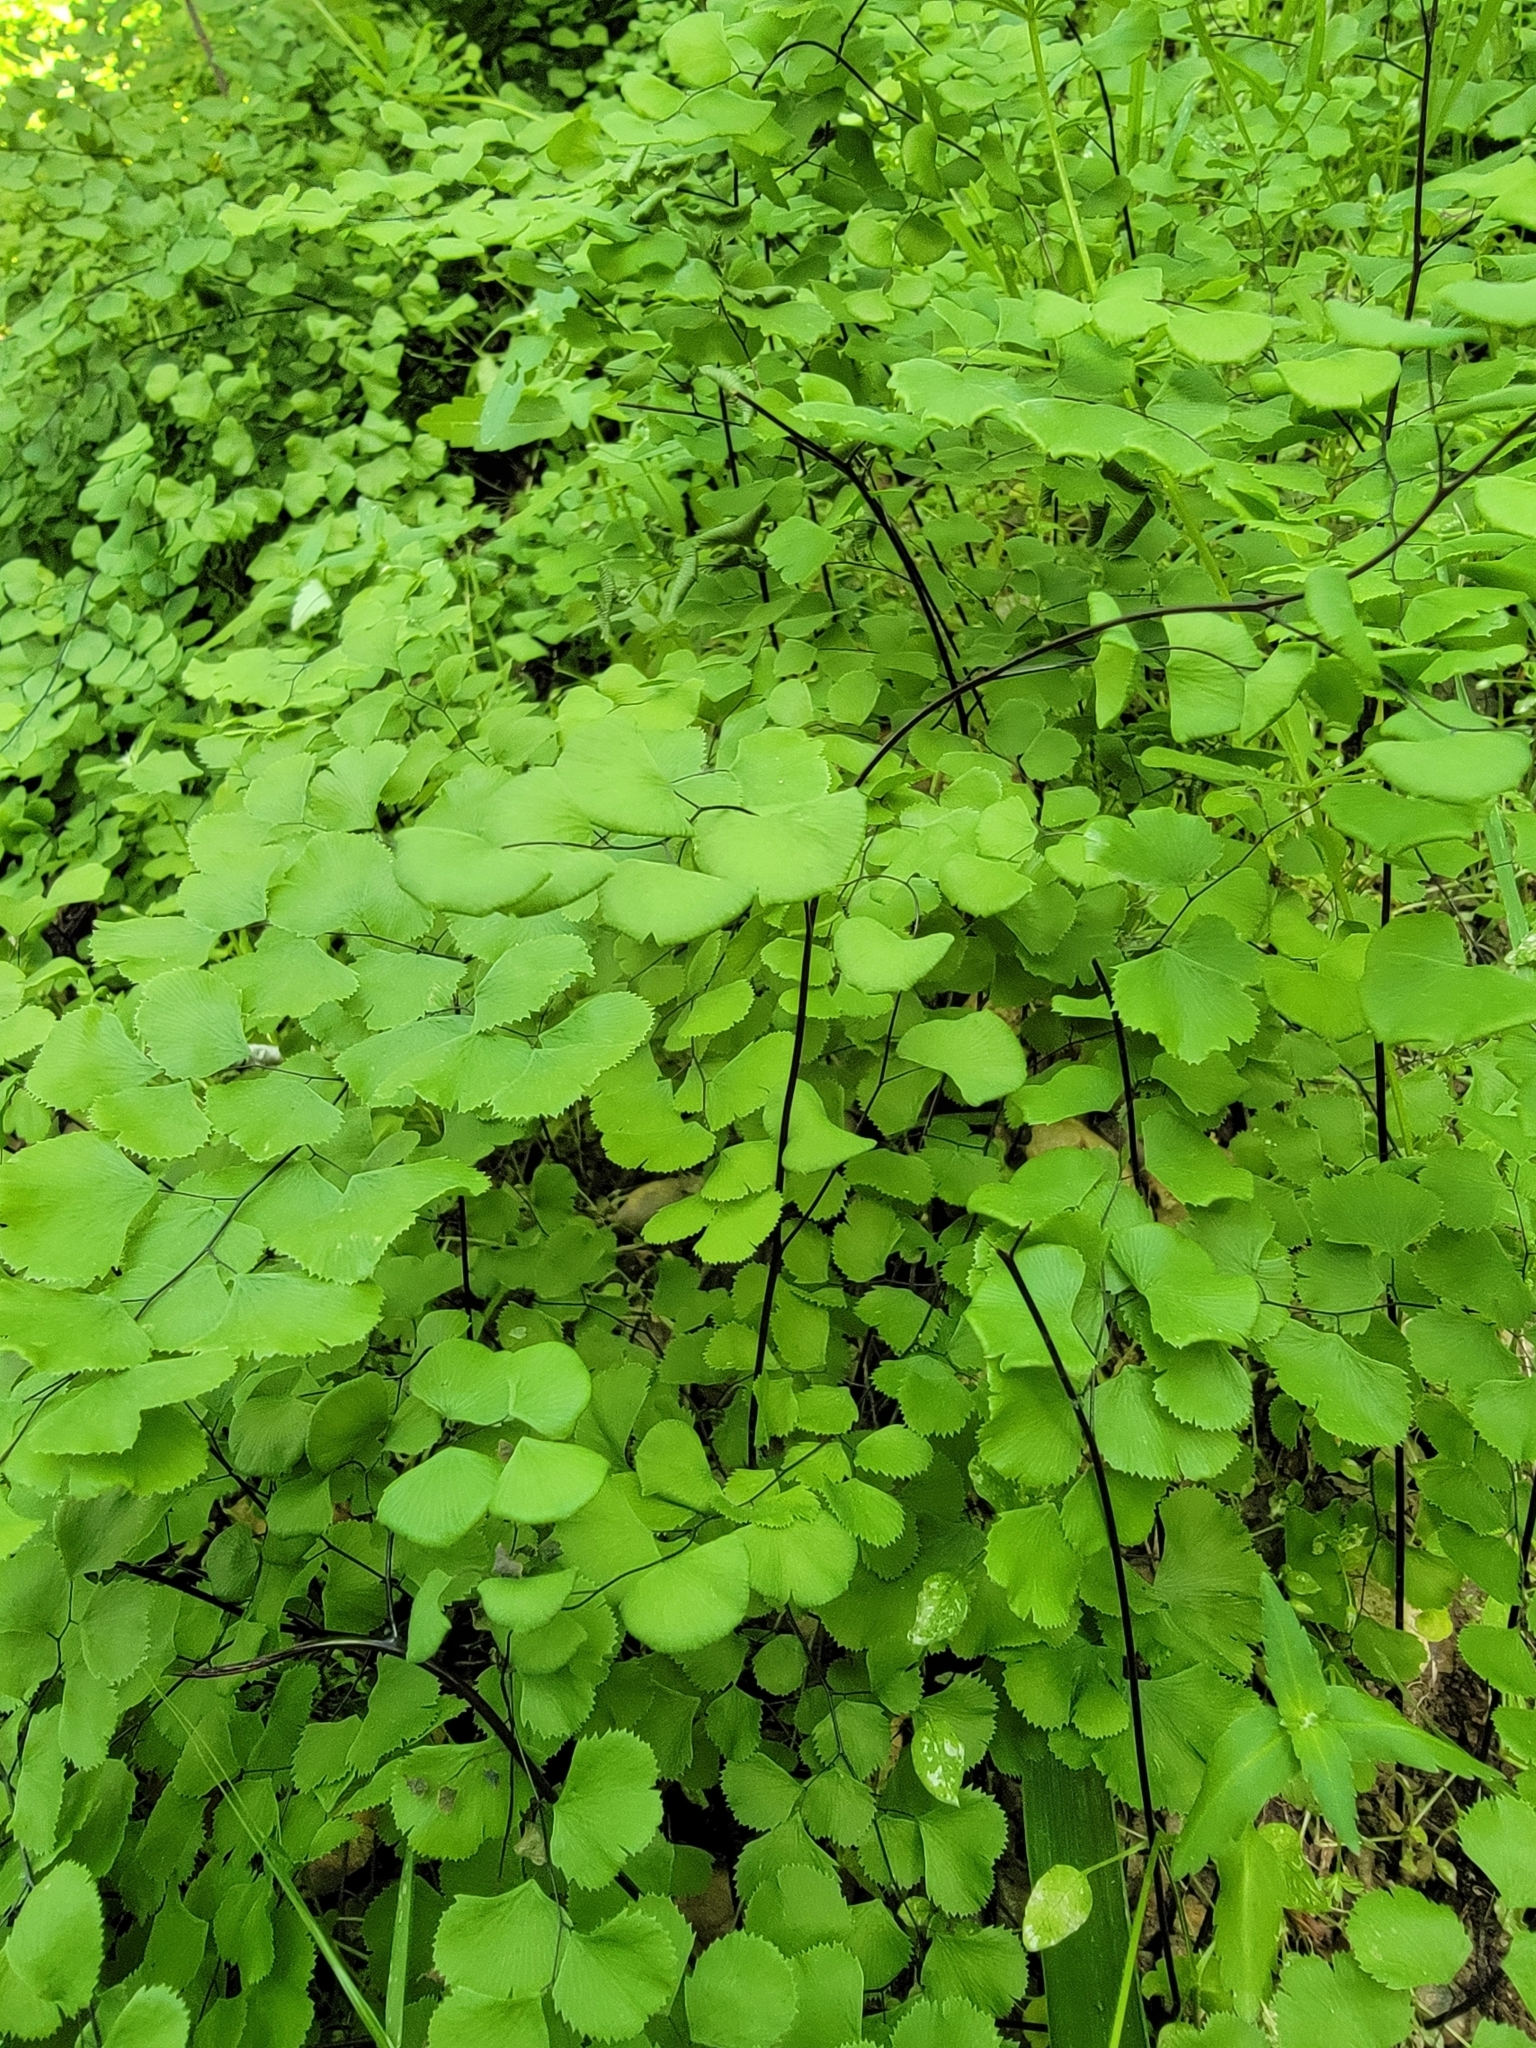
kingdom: Plantae
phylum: Tracheophyta
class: Polypodiopsida
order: Polypodiales
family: Pteridaceae
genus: Adiantum
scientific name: Adiantum jordanii
